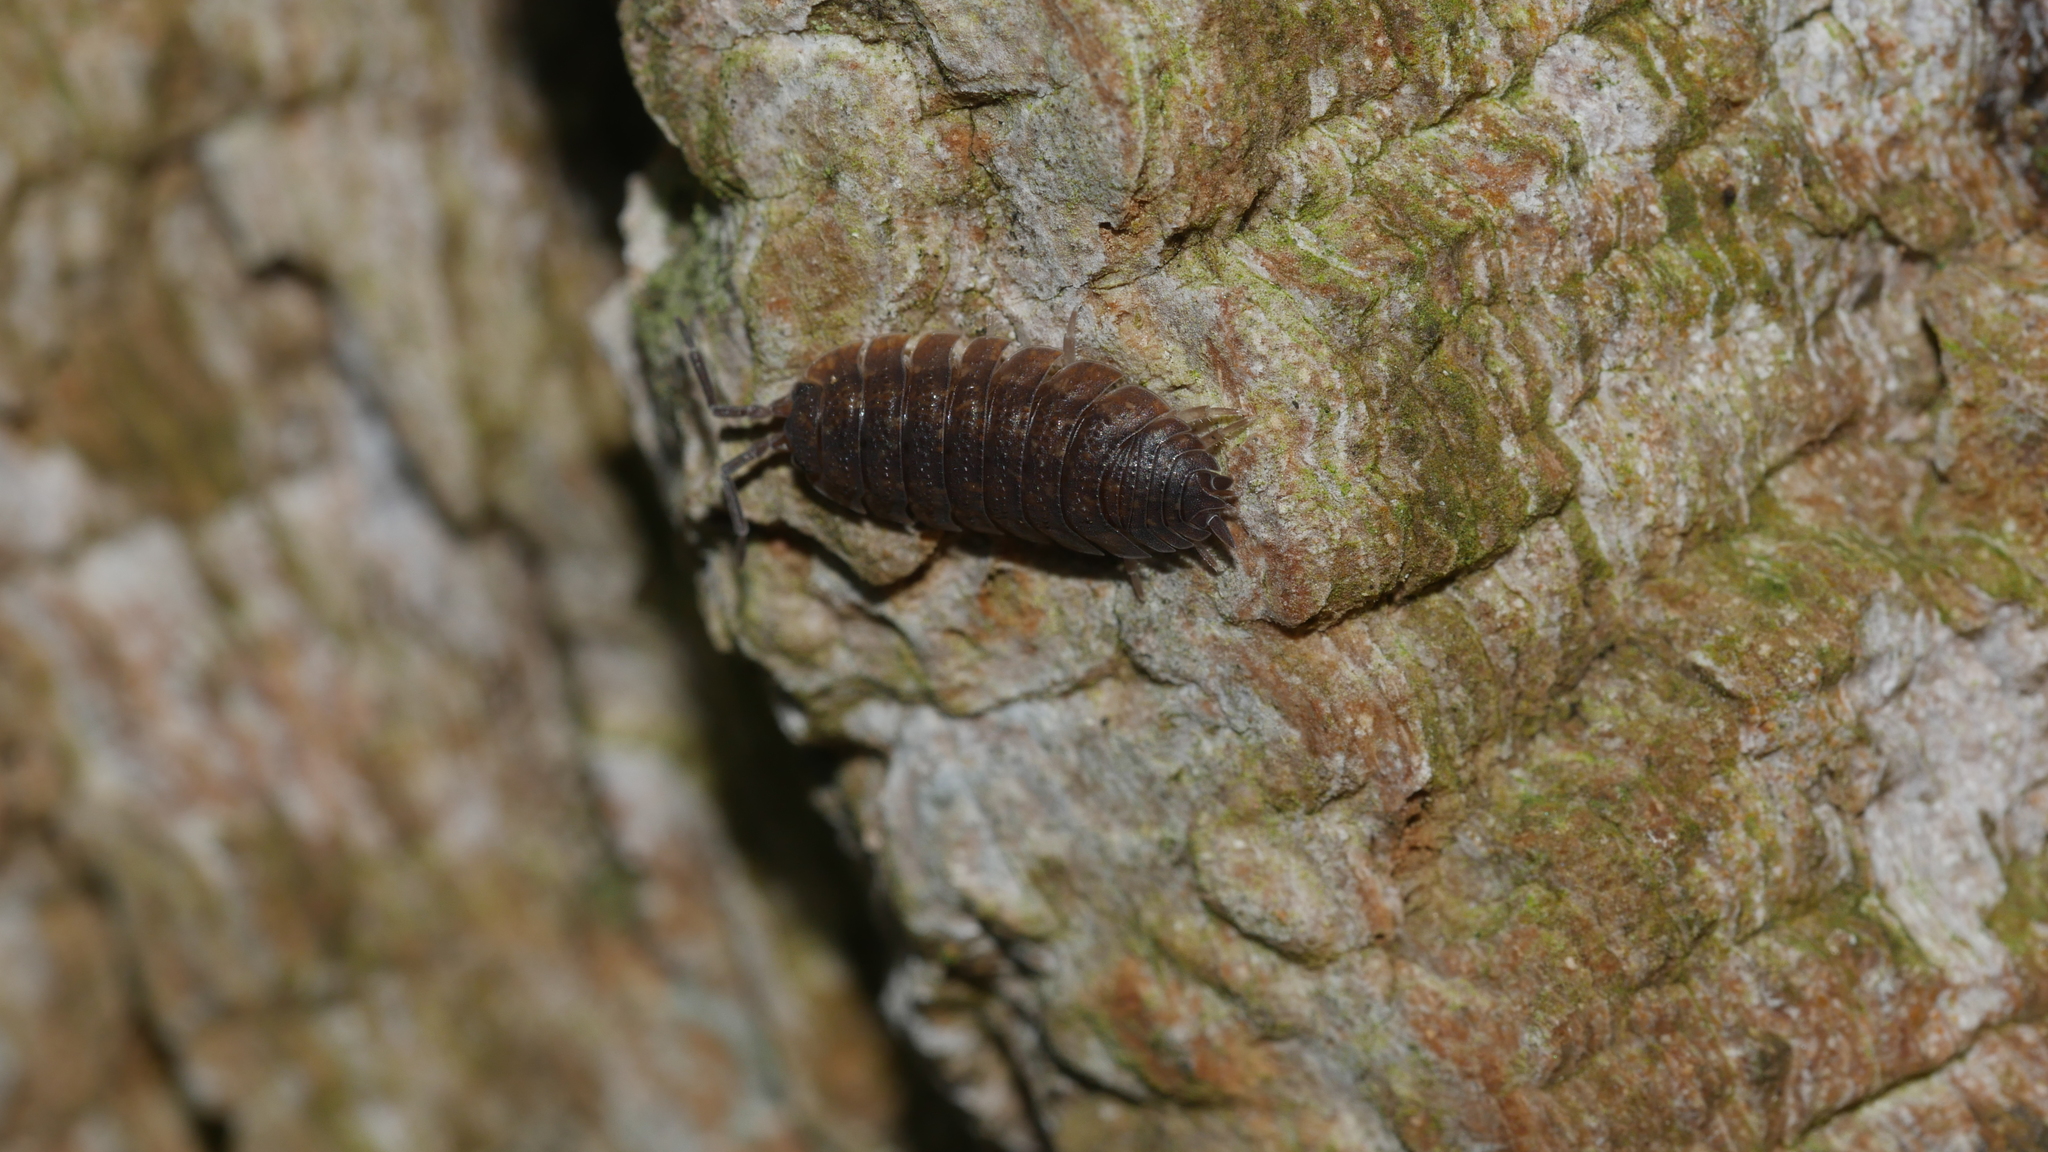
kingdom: Animalia
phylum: Arthropoda
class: Malacostraca
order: Isopoda
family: Porcellionidae
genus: Porcellio
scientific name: Porcellio scaber
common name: Common rough woodlouse
